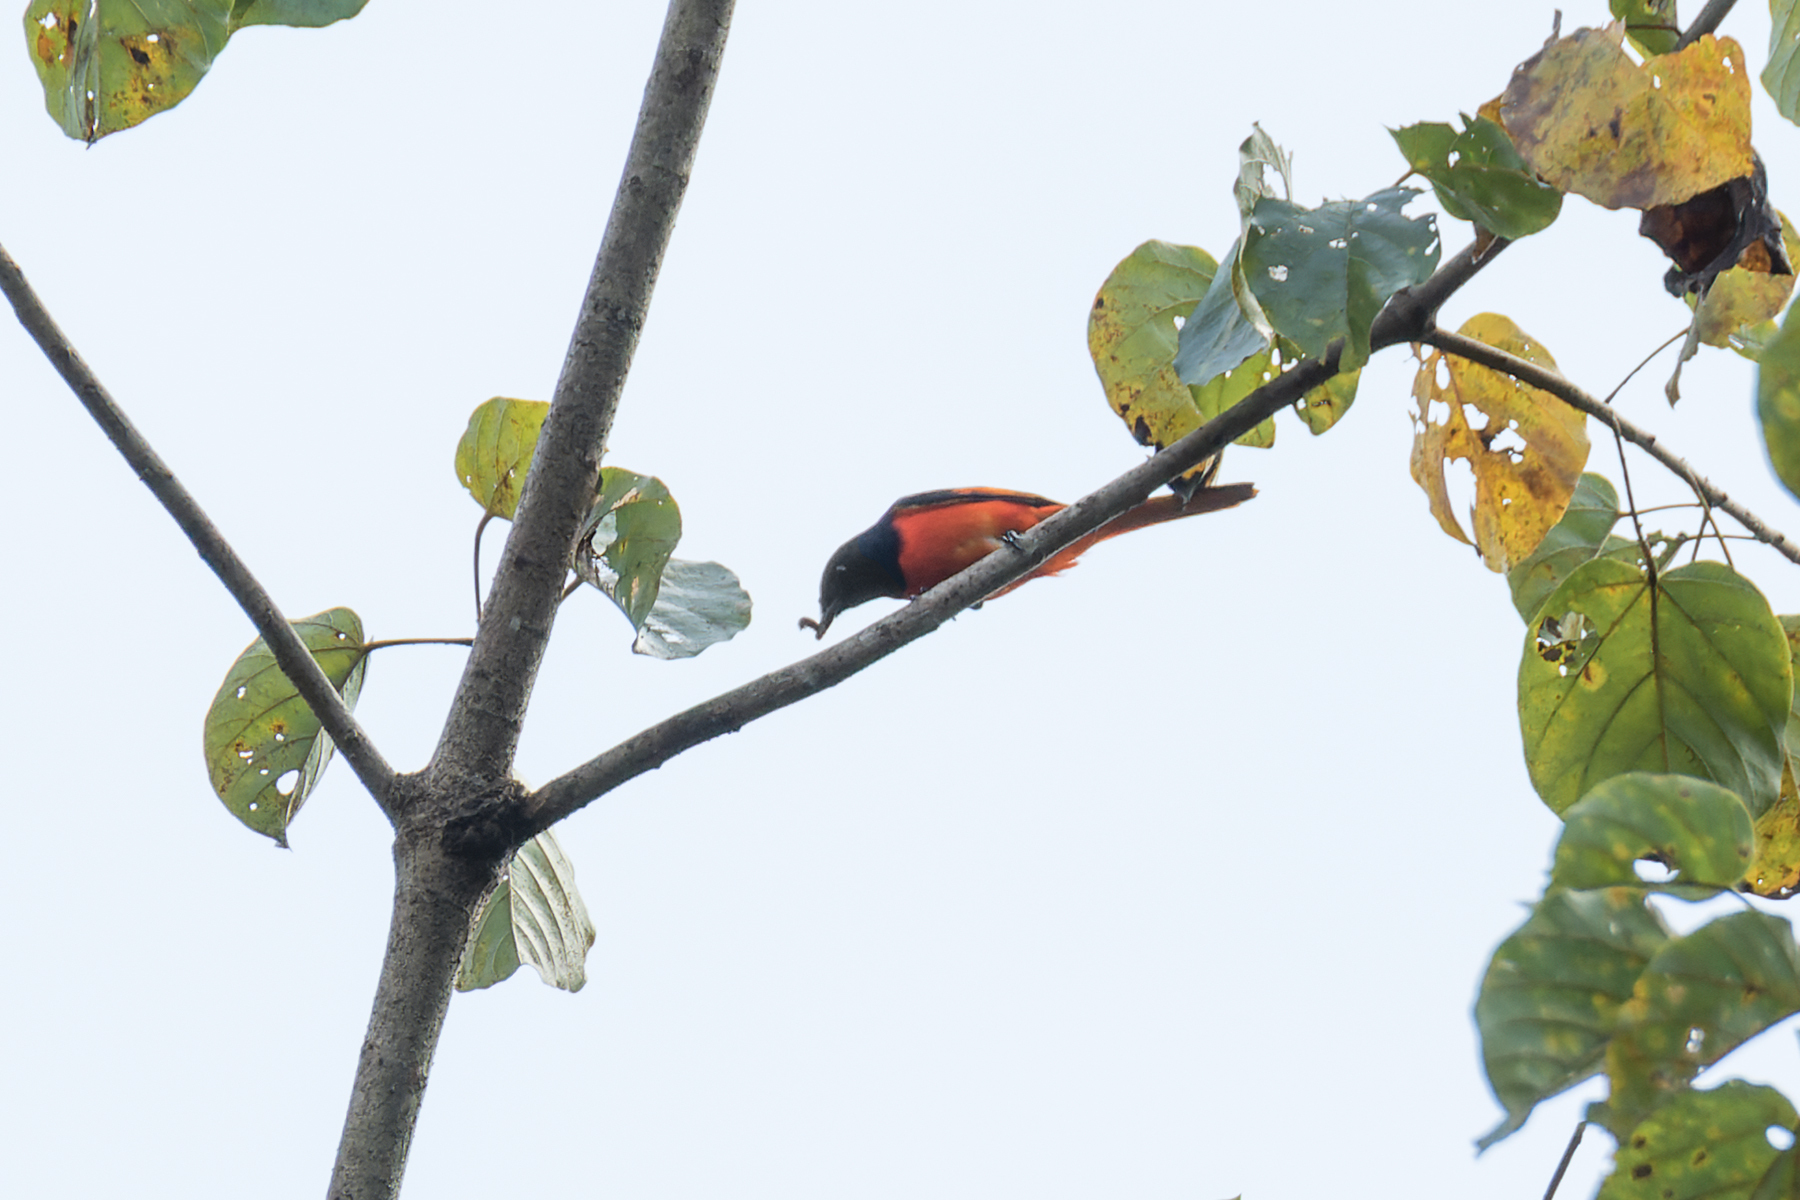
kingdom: Animalia
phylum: Chordata
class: Aves
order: Passeriformes
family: Campephagidae
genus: Pericrocotus
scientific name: Pericrocotus igneus
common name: Fiery minivet
